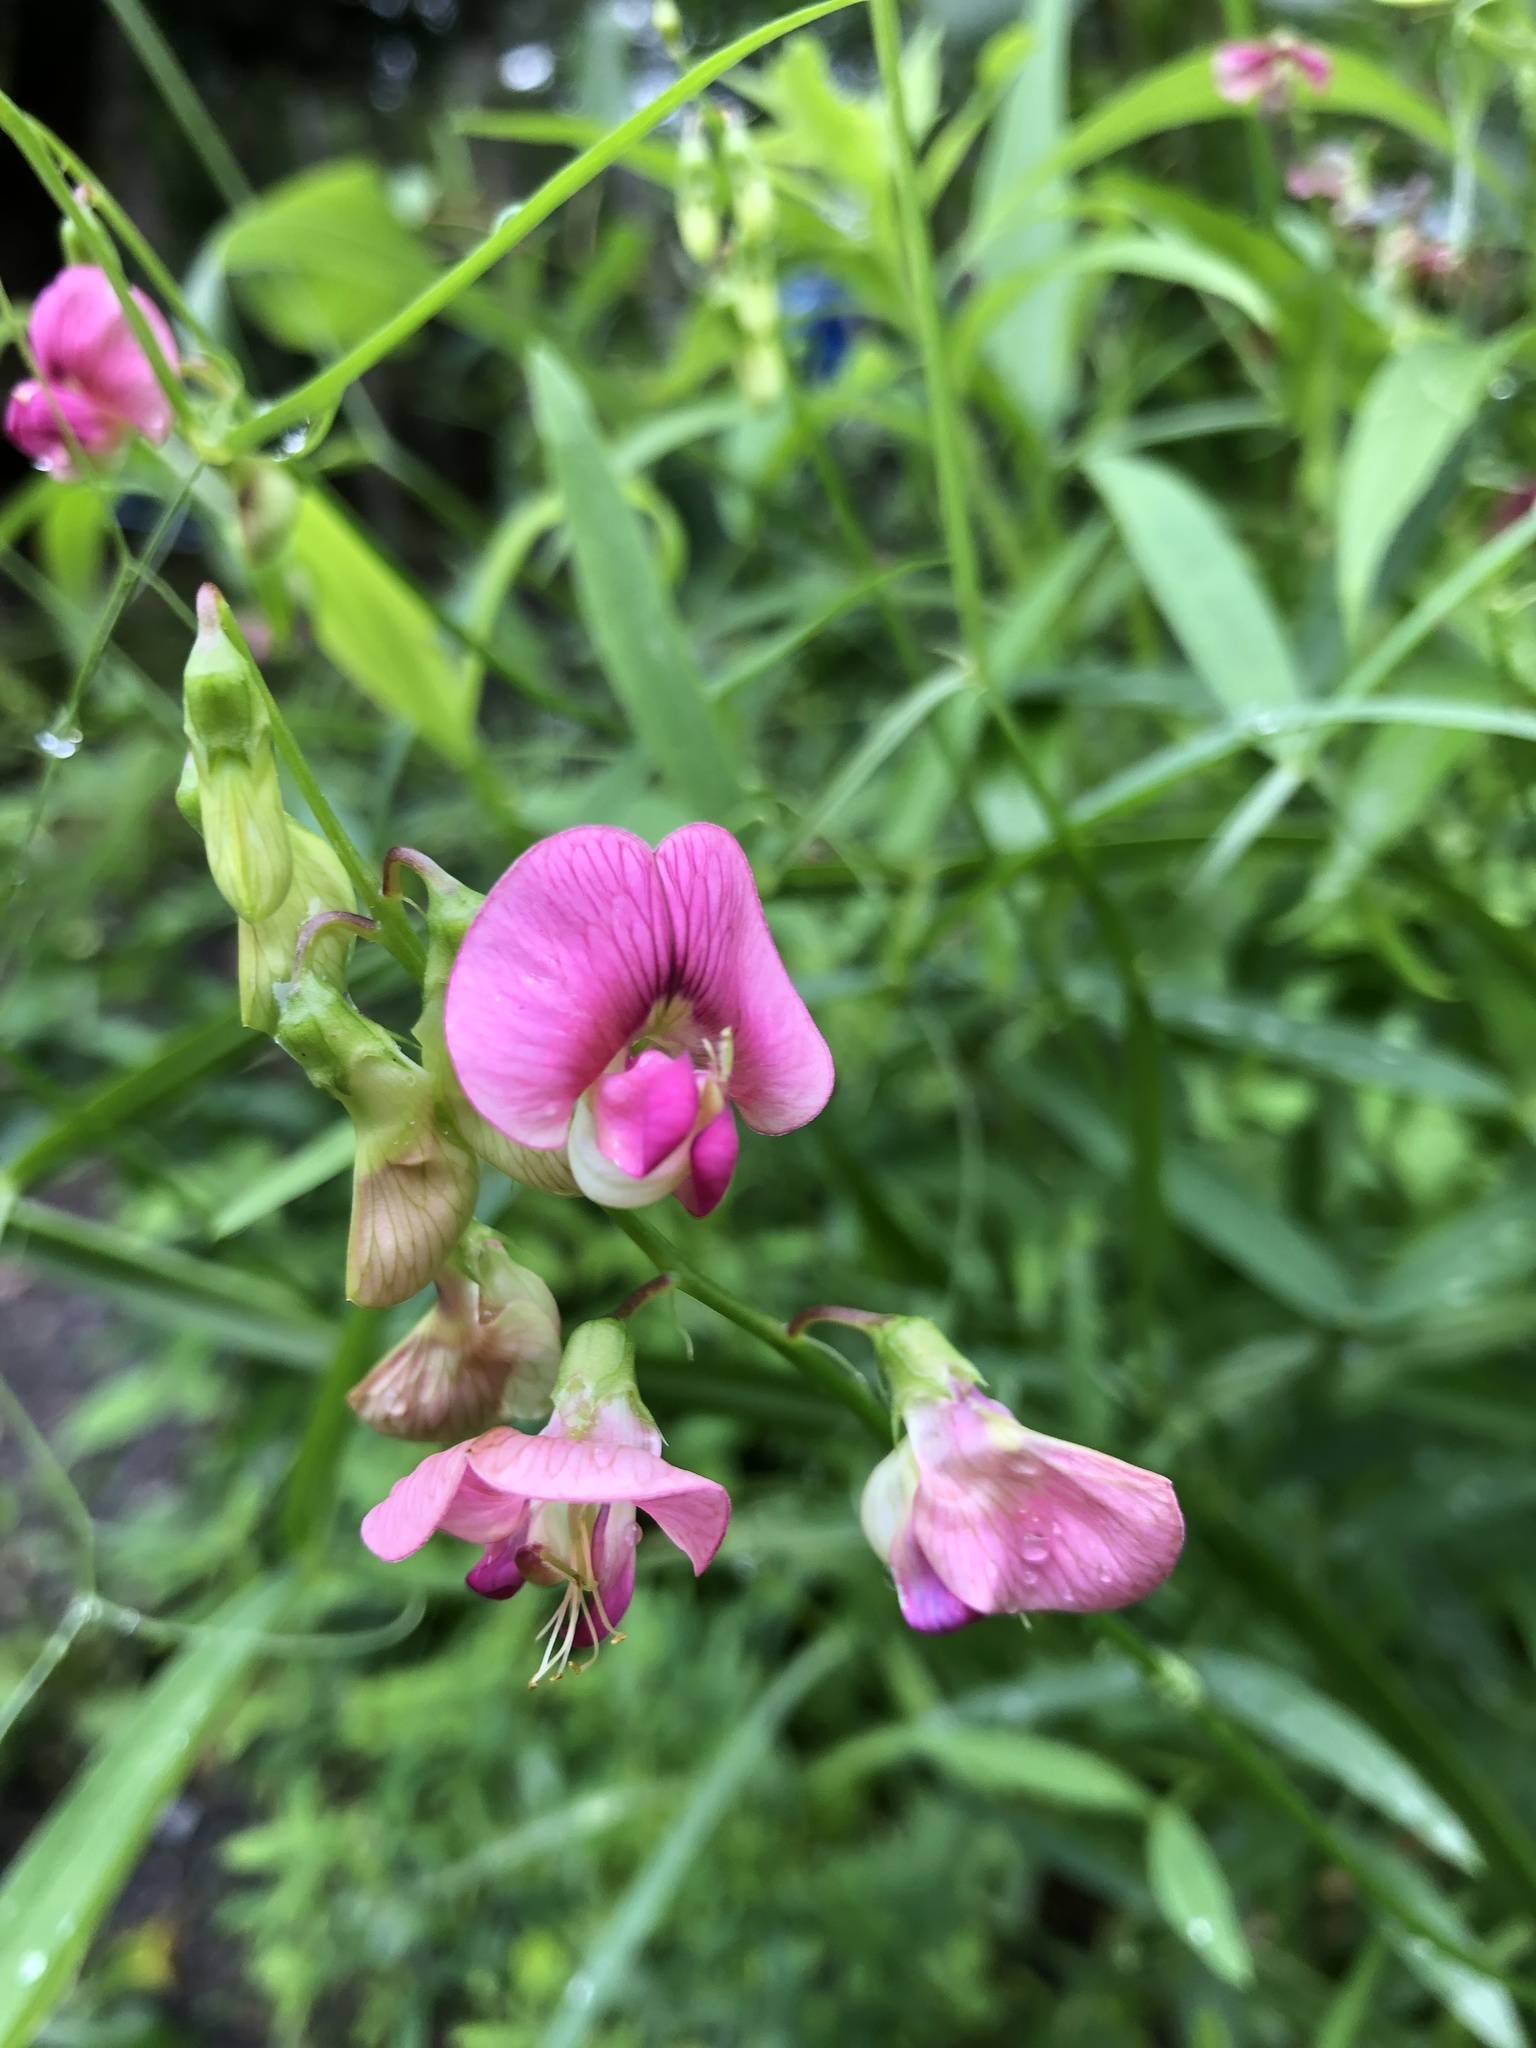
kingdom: Plantae
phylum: Tracheophyta
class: Magnoliopsida
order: Fabales
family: Fabaceae
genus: Lathyrus
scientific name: Lathyrus sylvestris
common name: Flat pea
